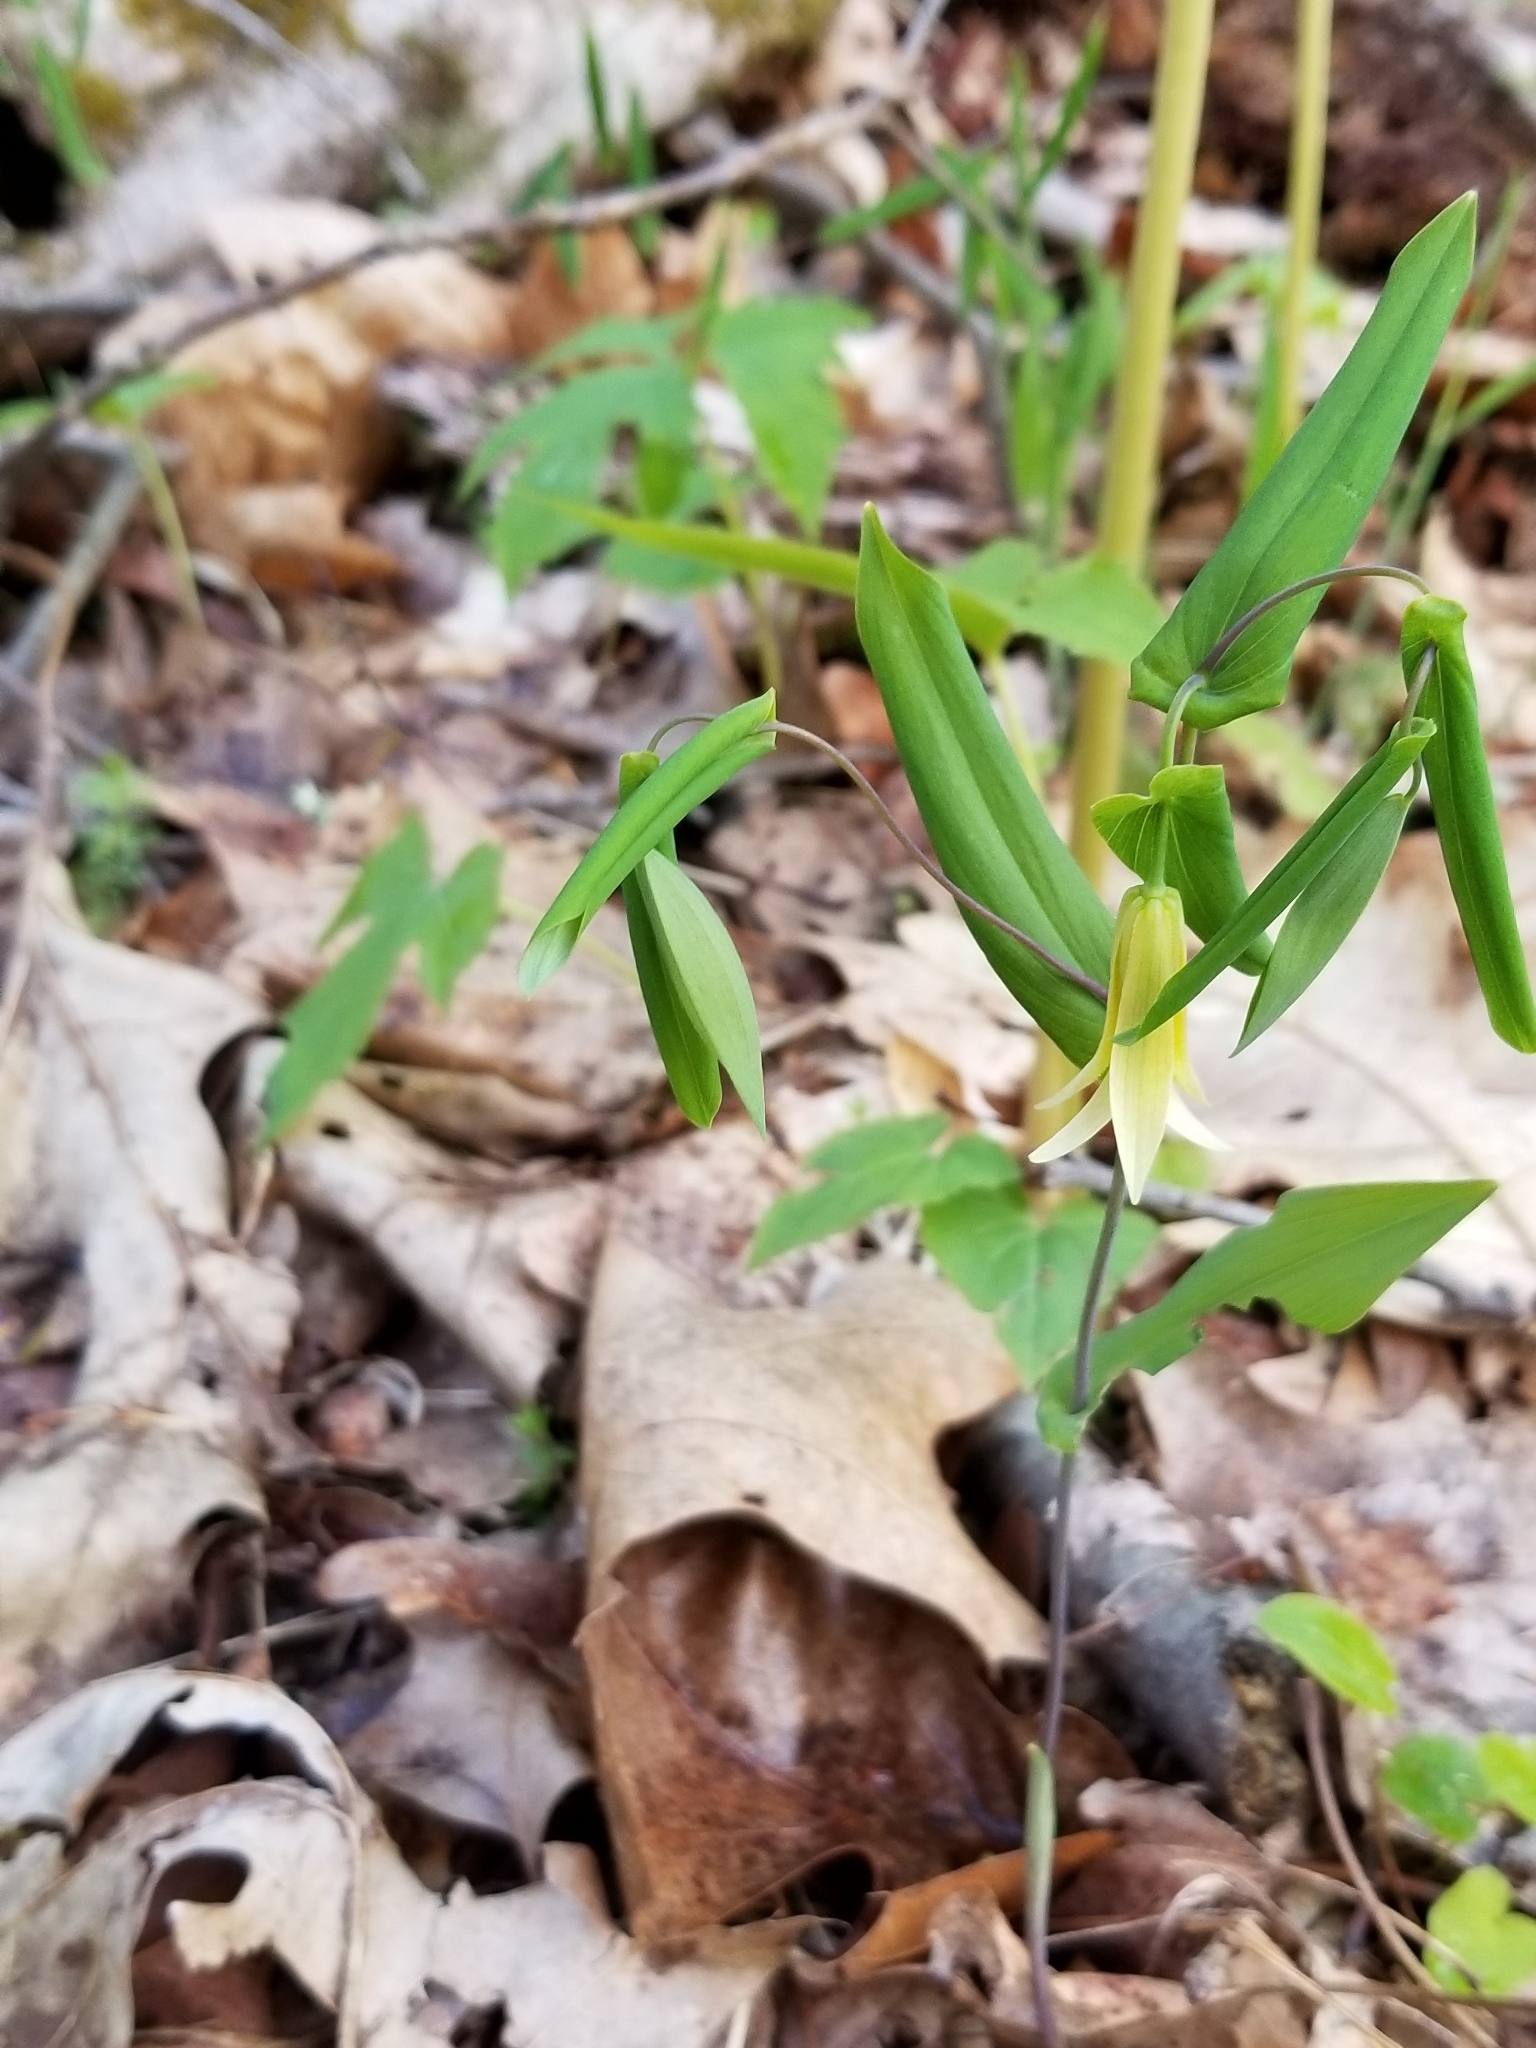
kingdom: Plantae
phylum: Tracheophyta
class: Liliopsida
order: Liliales
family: Colchicaceae
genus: Uvularia
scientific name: Uvularia perfoliata
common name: Perfoliate bellwort
